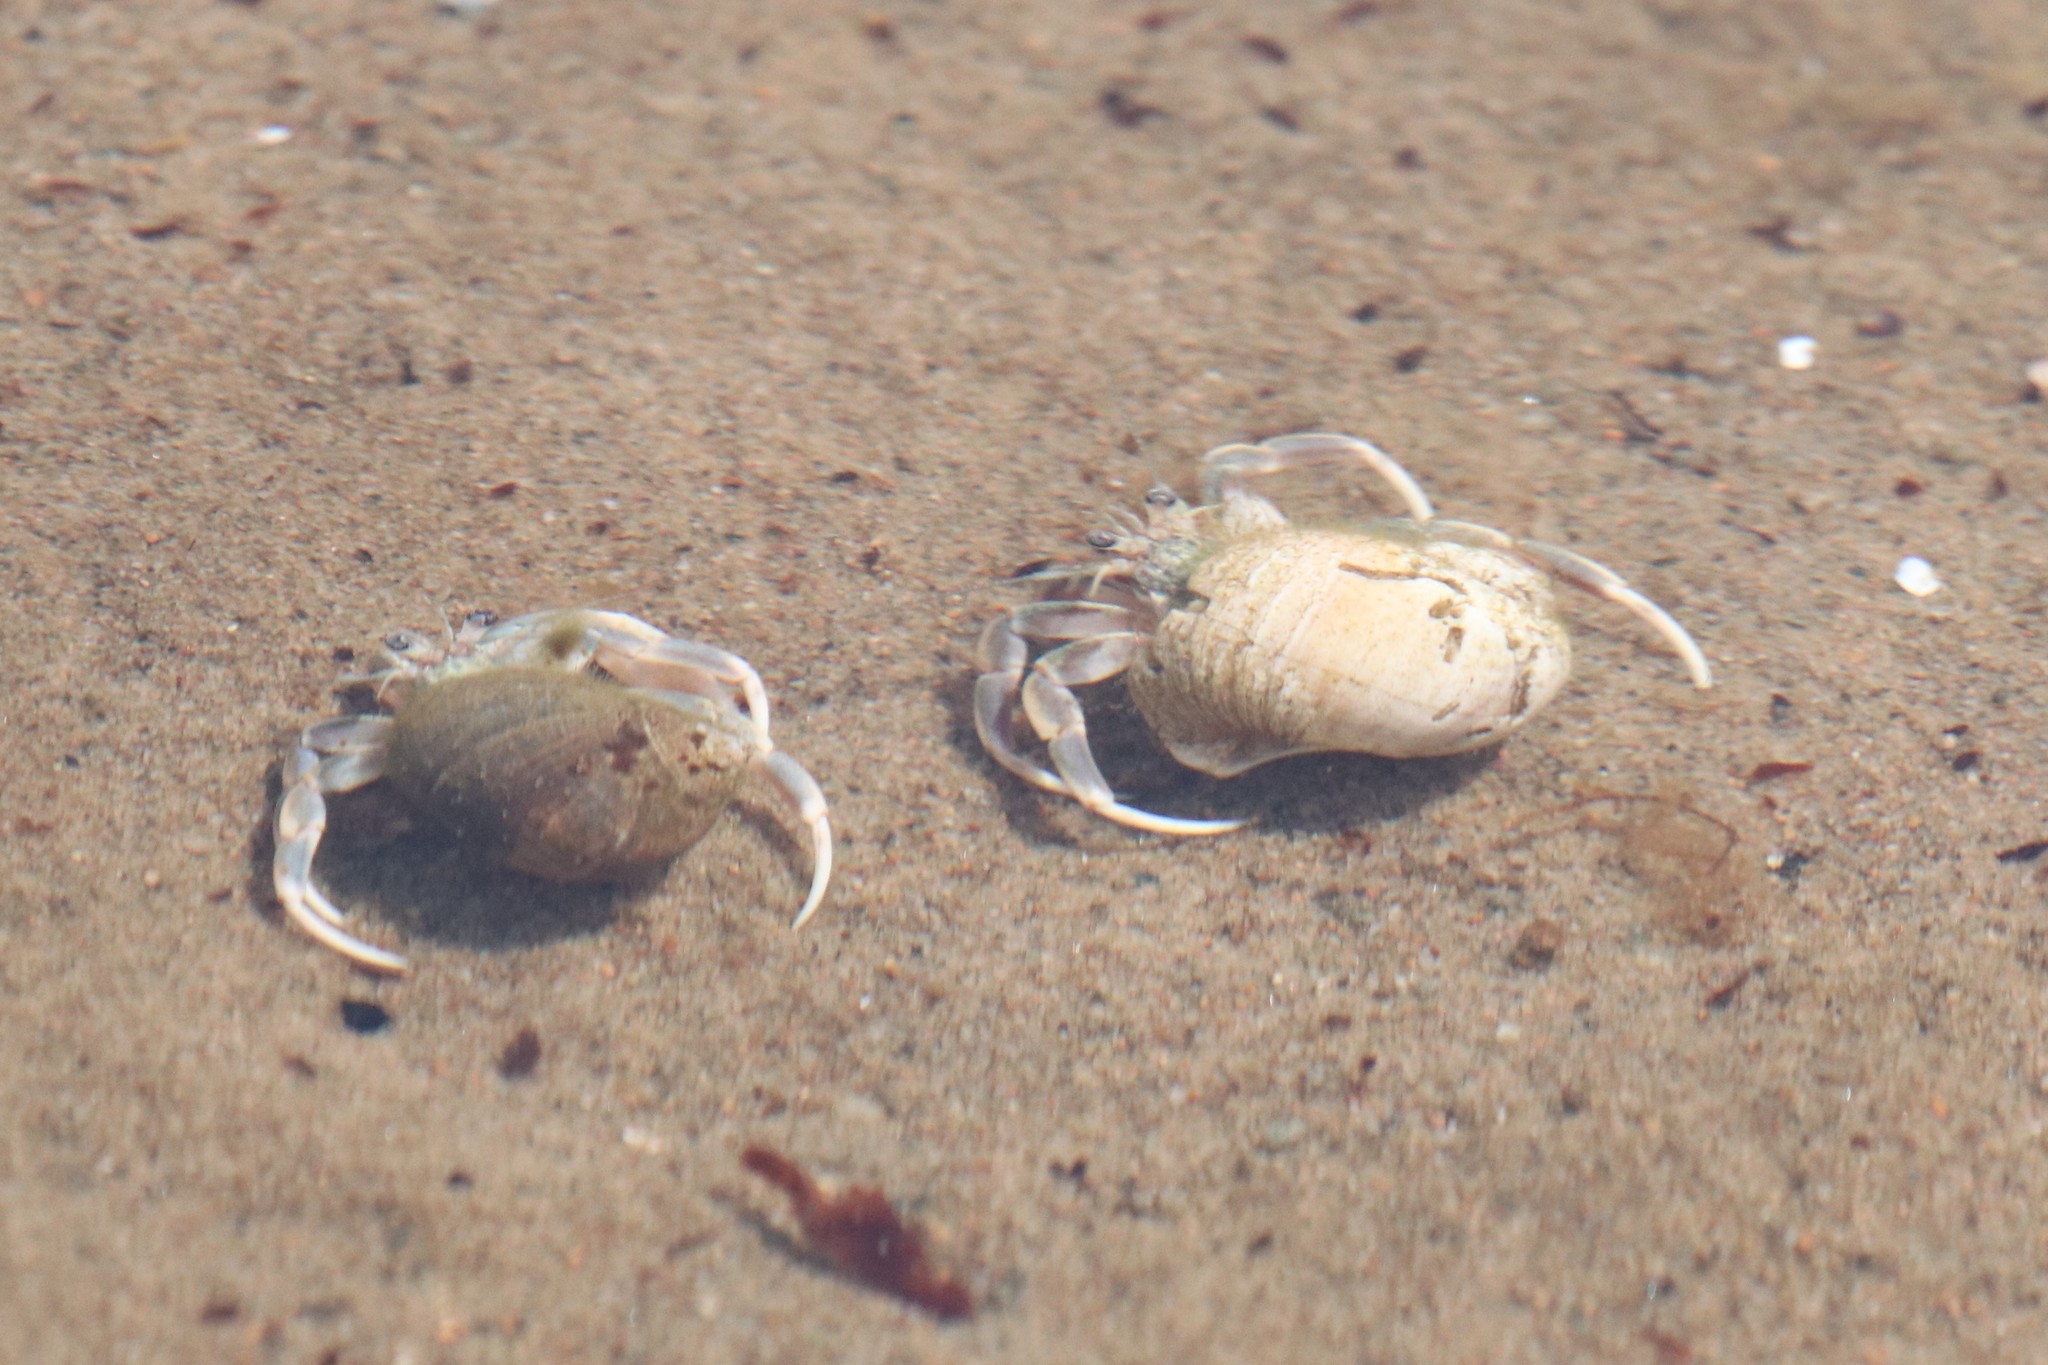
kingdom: Animalia
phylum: Arthropoda
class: Malacostraca
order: Decapoda
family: Paguridae
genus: Pagurus
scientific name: Pagurus longicarpus
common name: Long-armed hermit crab
